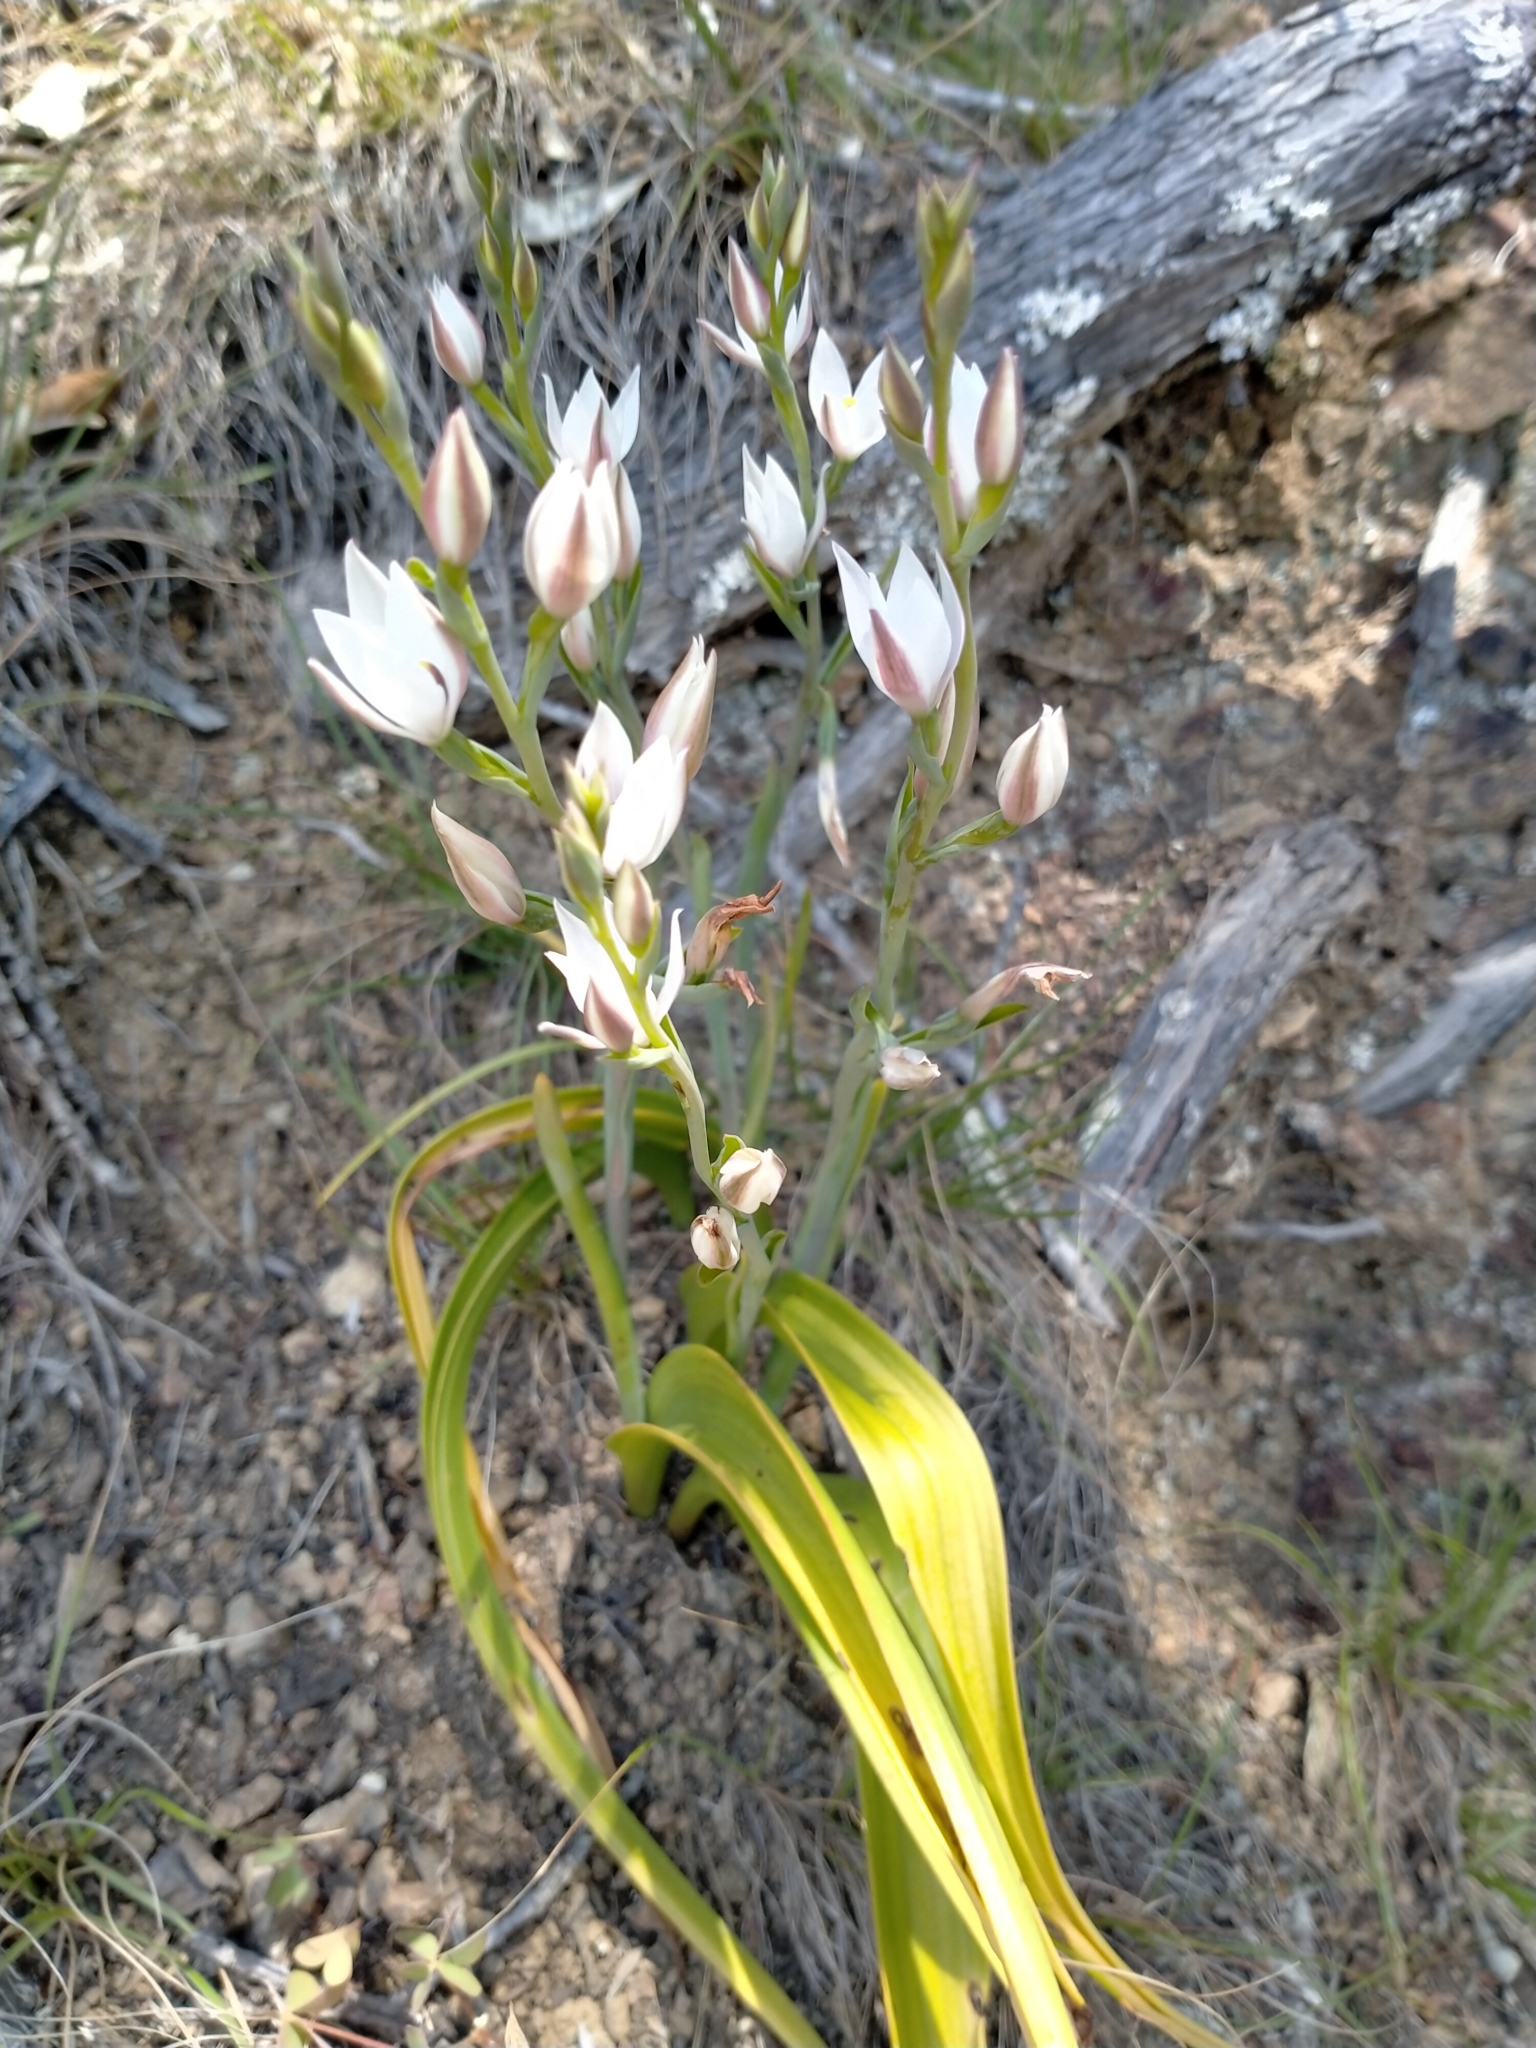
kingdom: Plantae
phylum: Tracheophyta
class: Liliopsida
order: Asparagales
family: Orchidaceae
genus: Thelymitra
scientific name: Thelymitra longifolia
